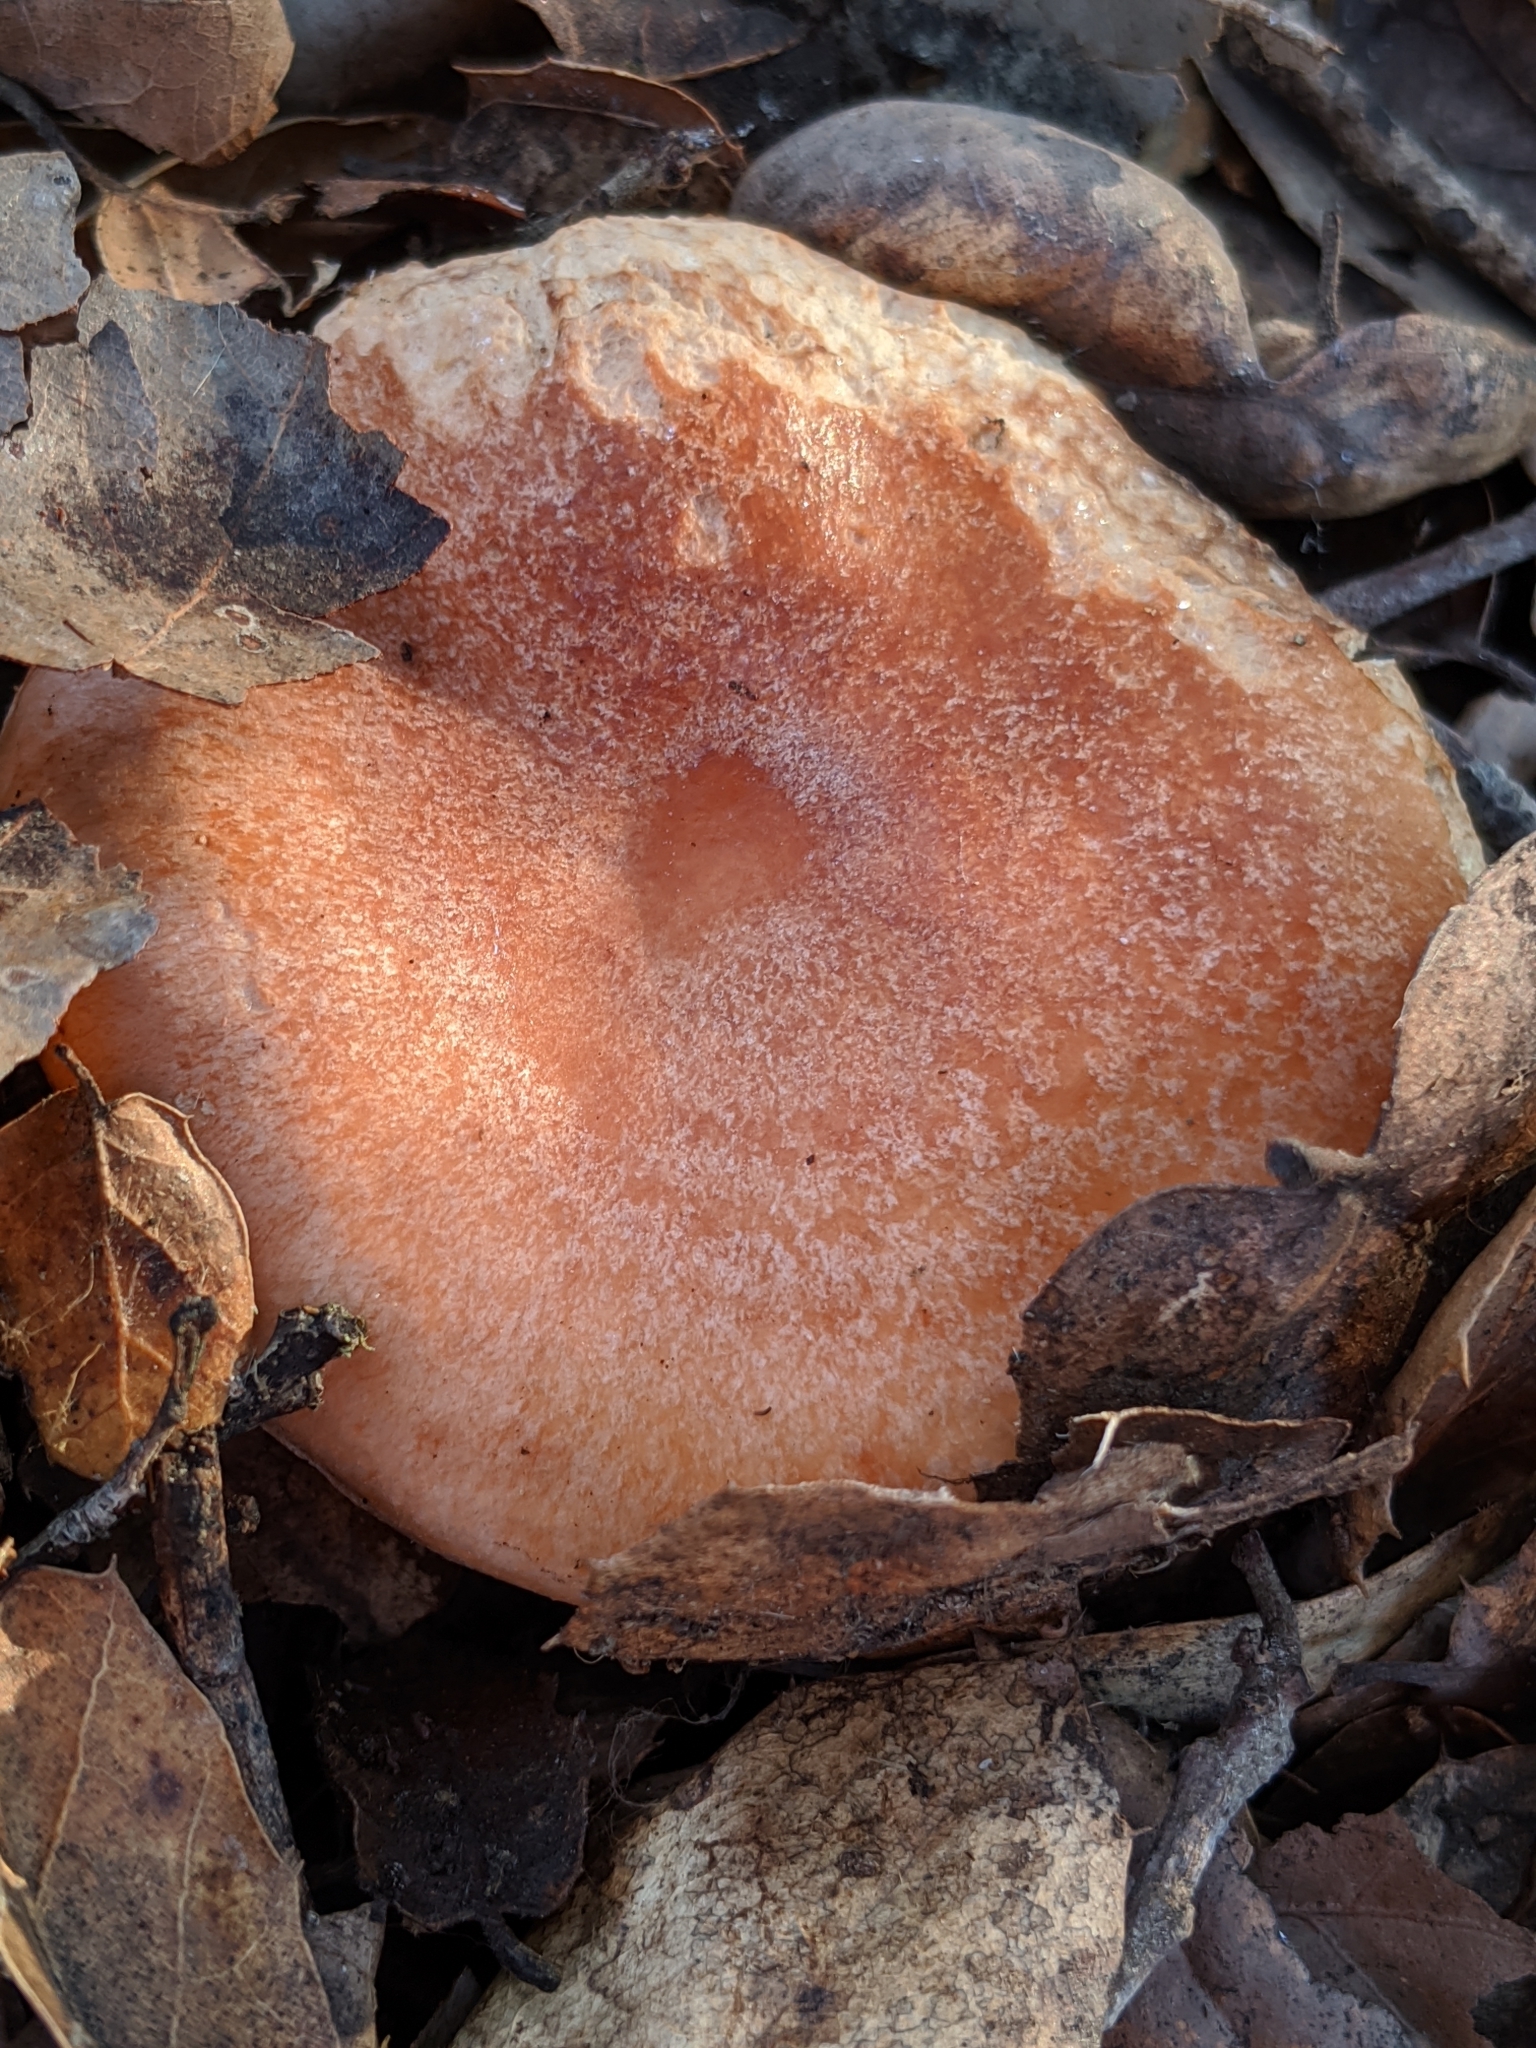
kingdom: Fungi
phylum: Basidiomycota
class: Agaricomycetes
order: Russulales
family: Russulaceae
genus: Lactarius
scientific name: Lactarius xanthogalactus
